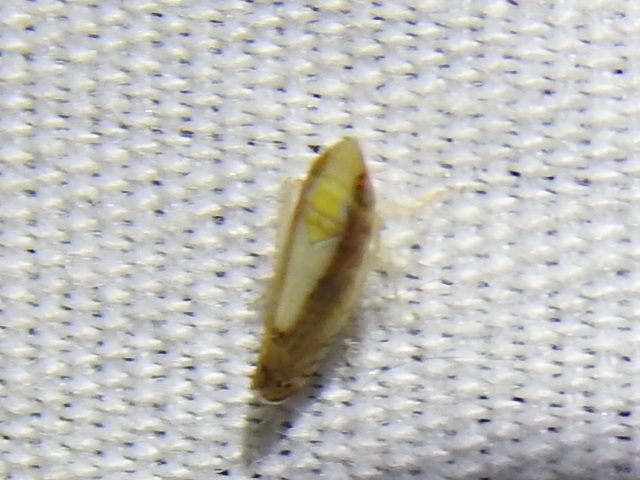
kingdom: Animalia
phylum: Arthropoda
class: Insecta
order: Hemiptera
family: Cicadellidae
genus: Scaphytopius
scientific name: Scaphytopius elegans
